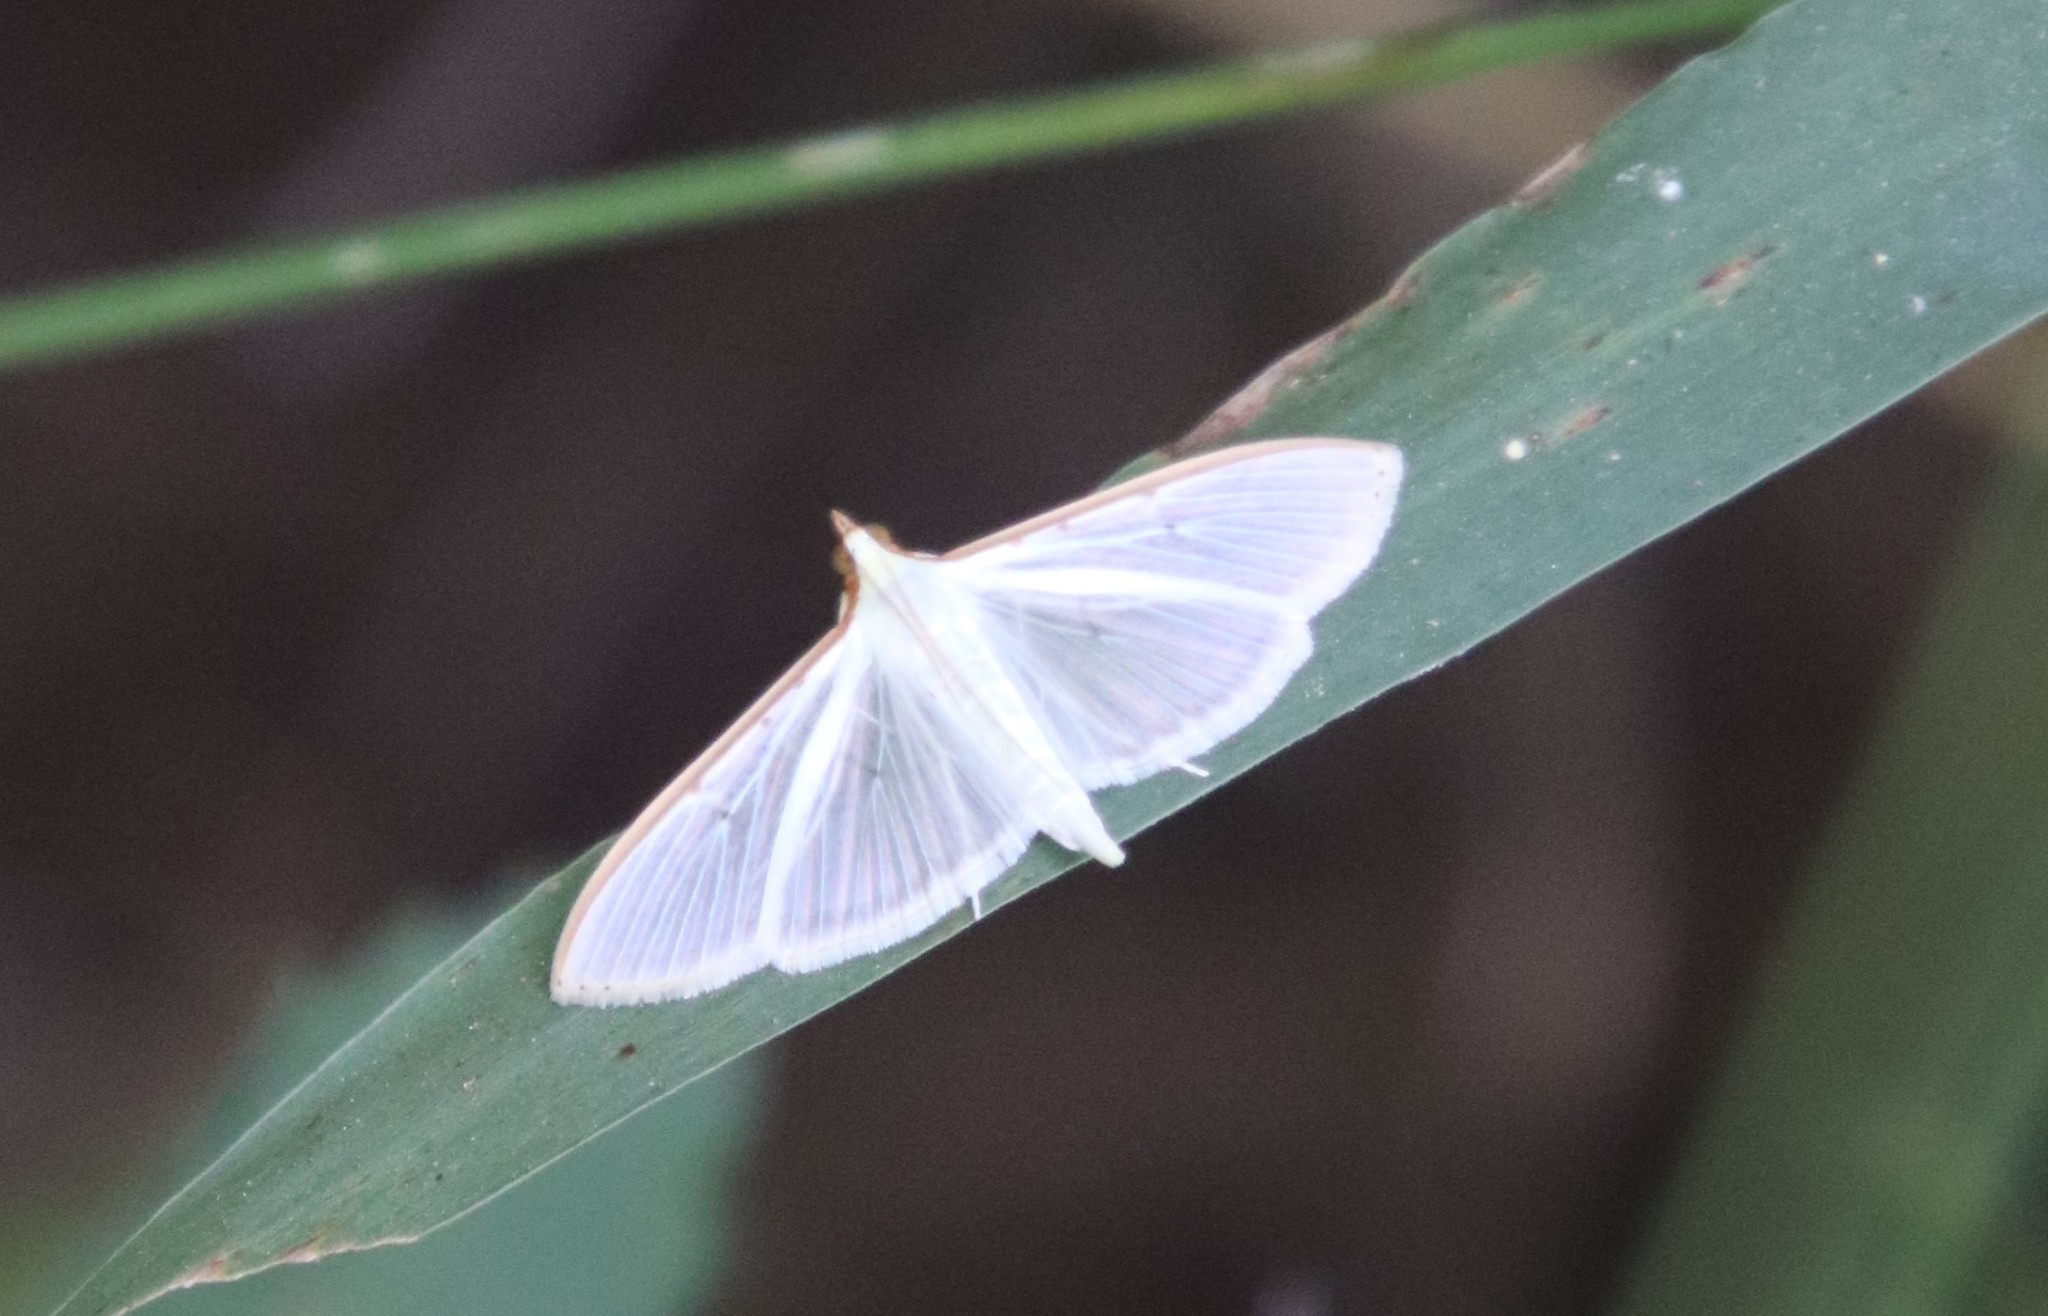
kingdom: Animalia
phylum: Arthropoda
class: Insecta
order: Lepidoptera
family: Crambidae
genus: Palpita
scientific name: Palpita quadristigmalis
